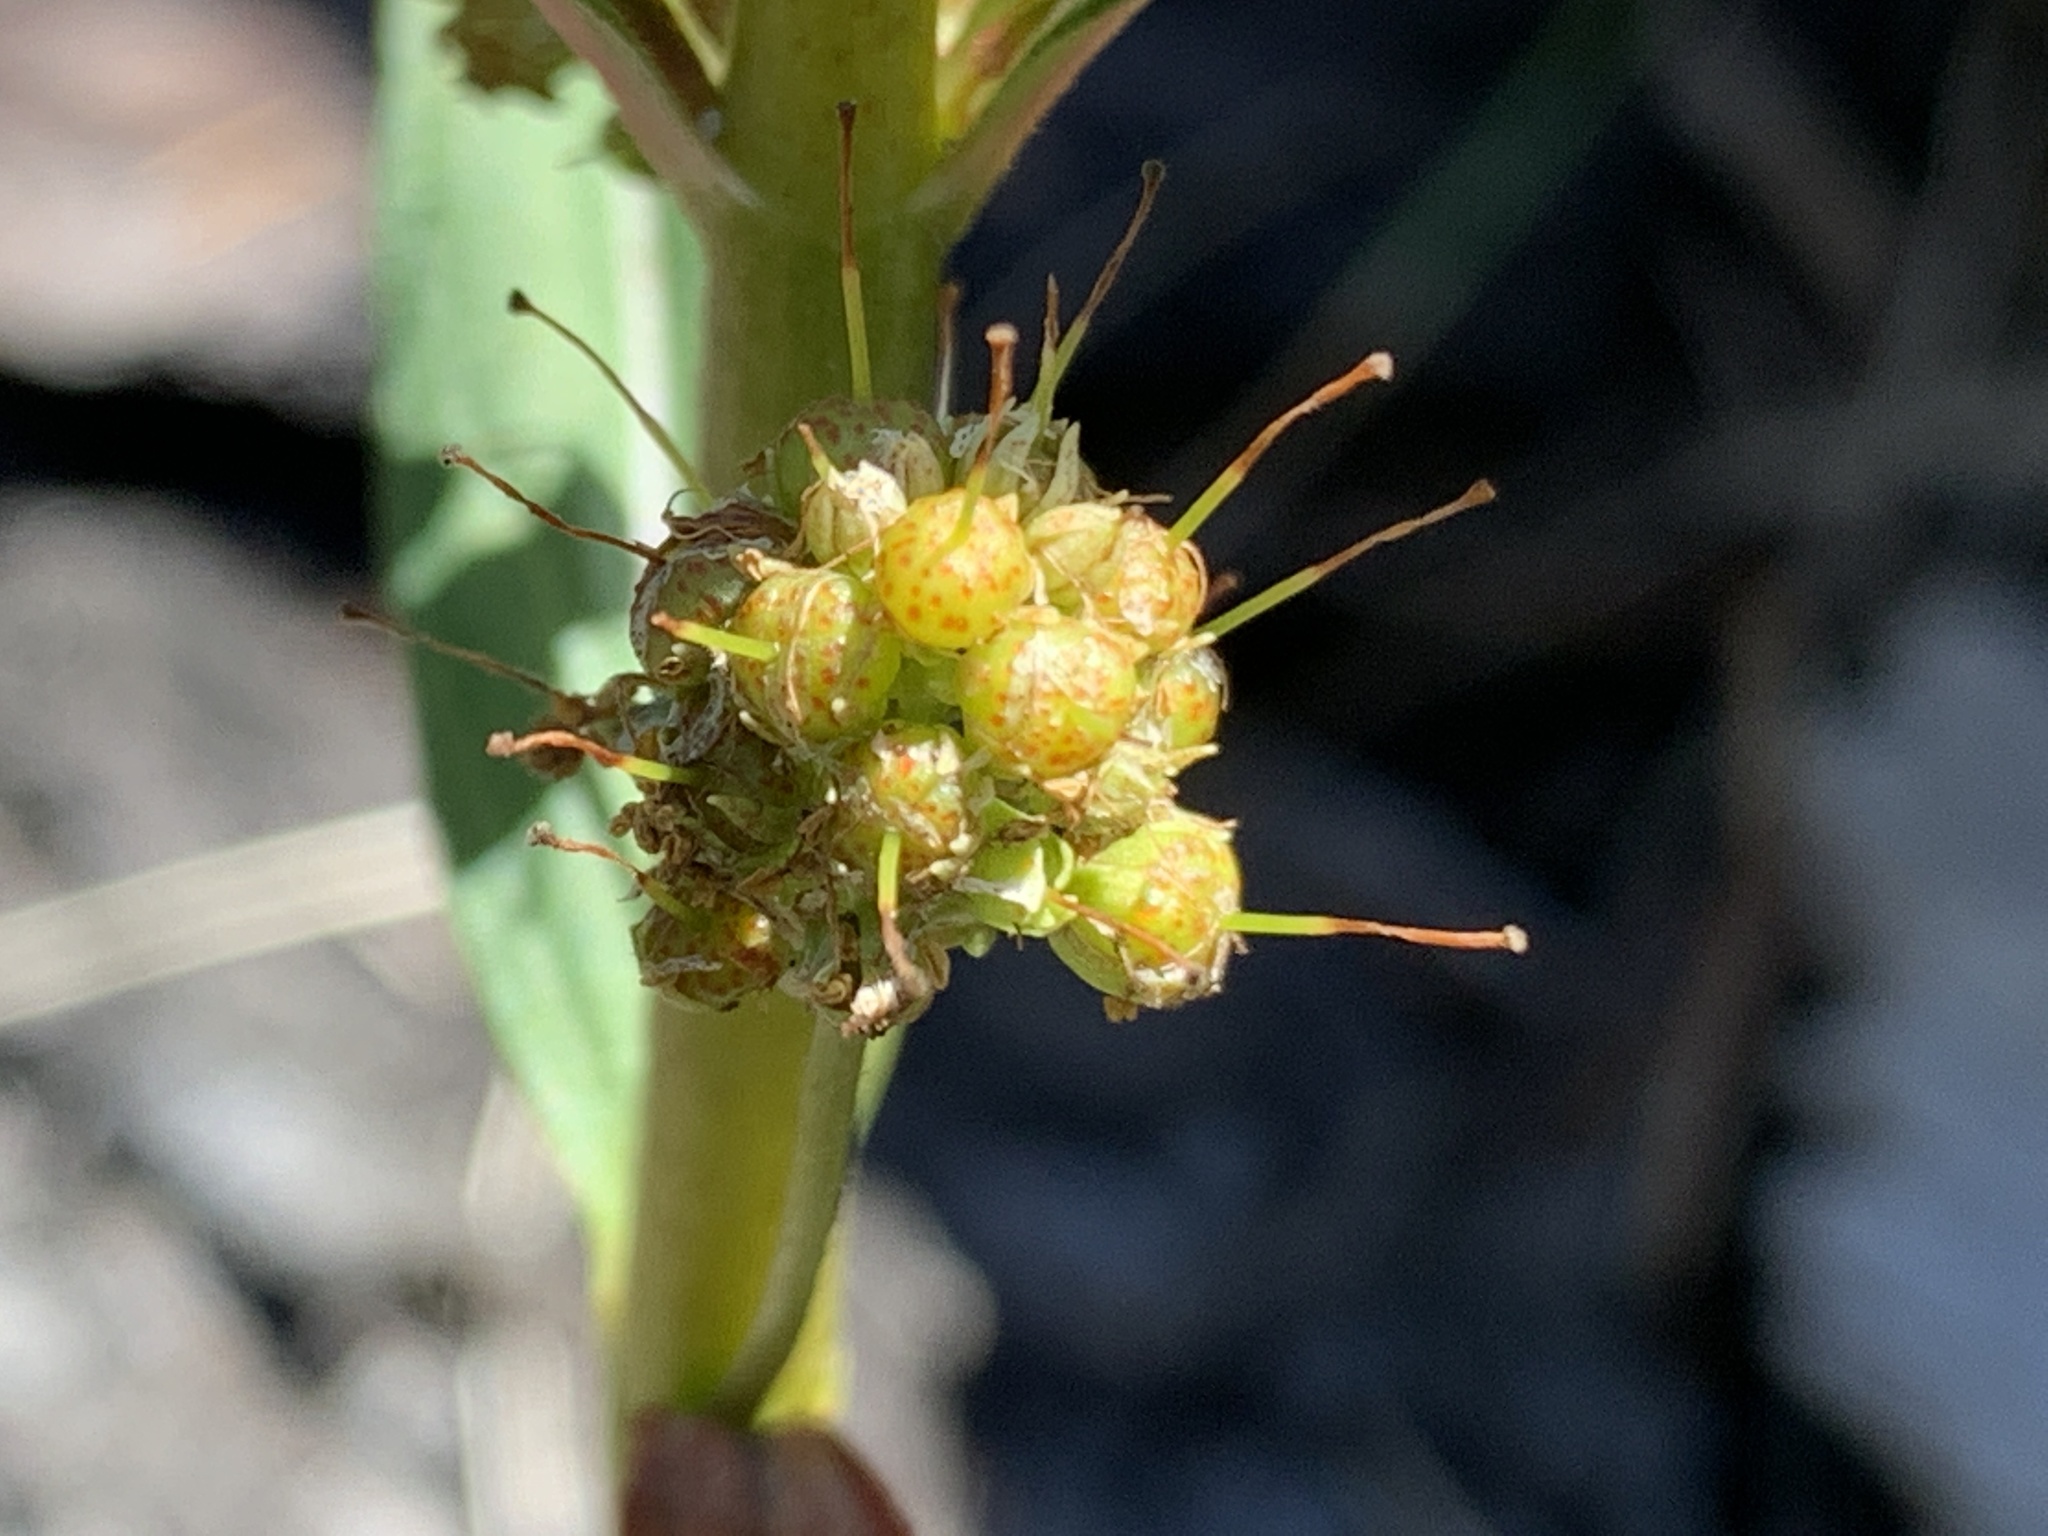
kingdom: Plantae
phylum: Tracheophyta
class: Magnoliopsida
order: Ericales
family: Primulaceae
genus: Lysimachia
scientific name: Lysimachia thyrsiflora
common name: Tufted loosestrife
